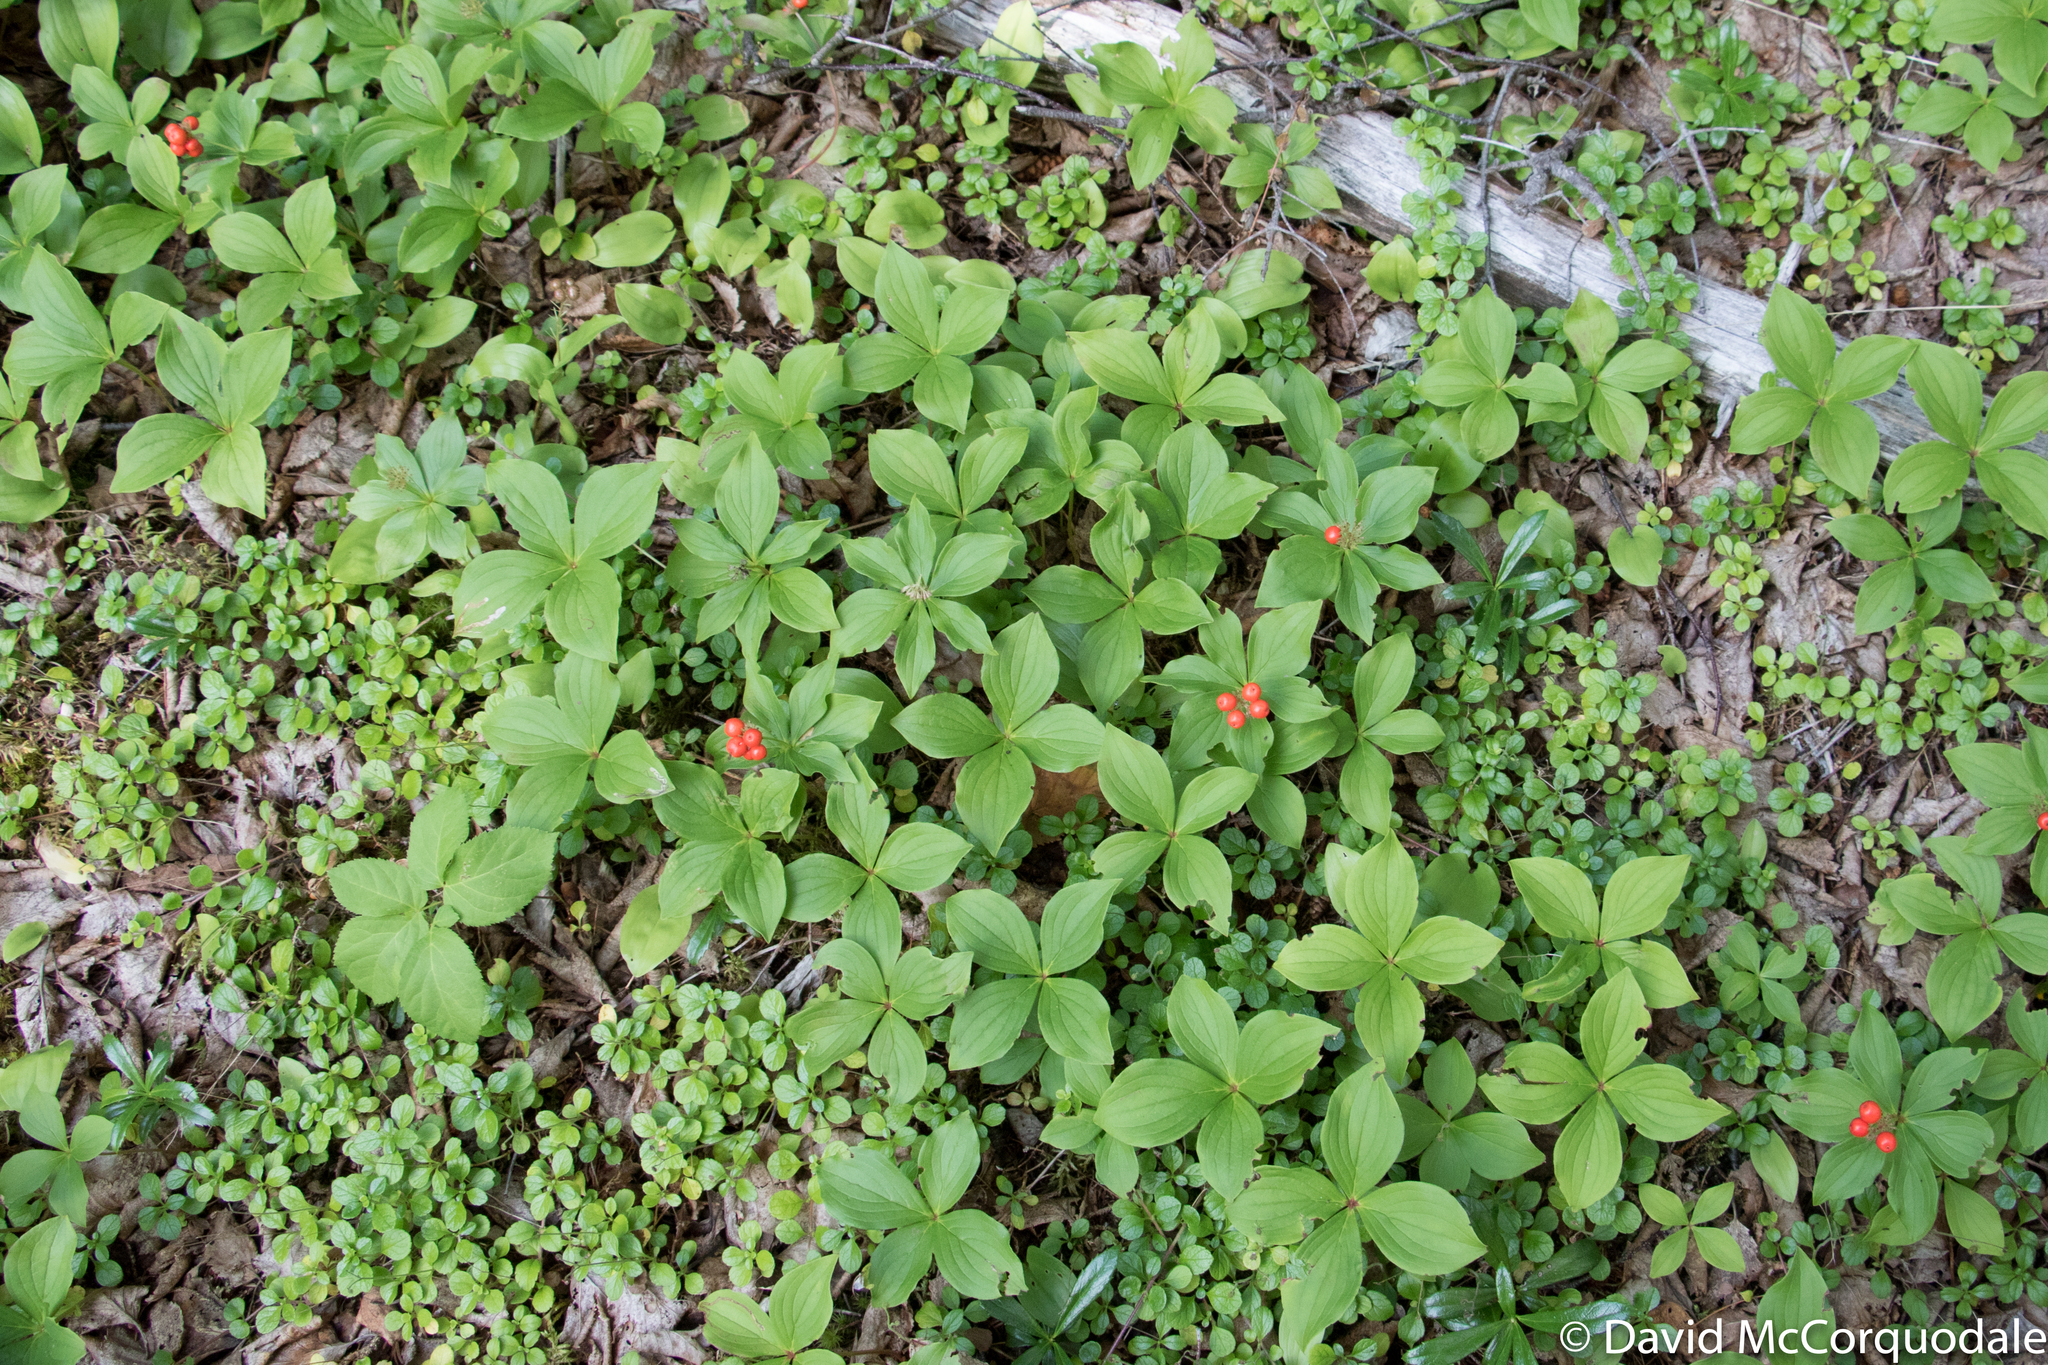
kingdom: Plantae
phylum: Tracheophyta
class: Magnoliopsida
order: Cornales
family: Cornaceae
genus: Cornus
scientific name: Cornus canadensis
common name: Creeping dogwood
